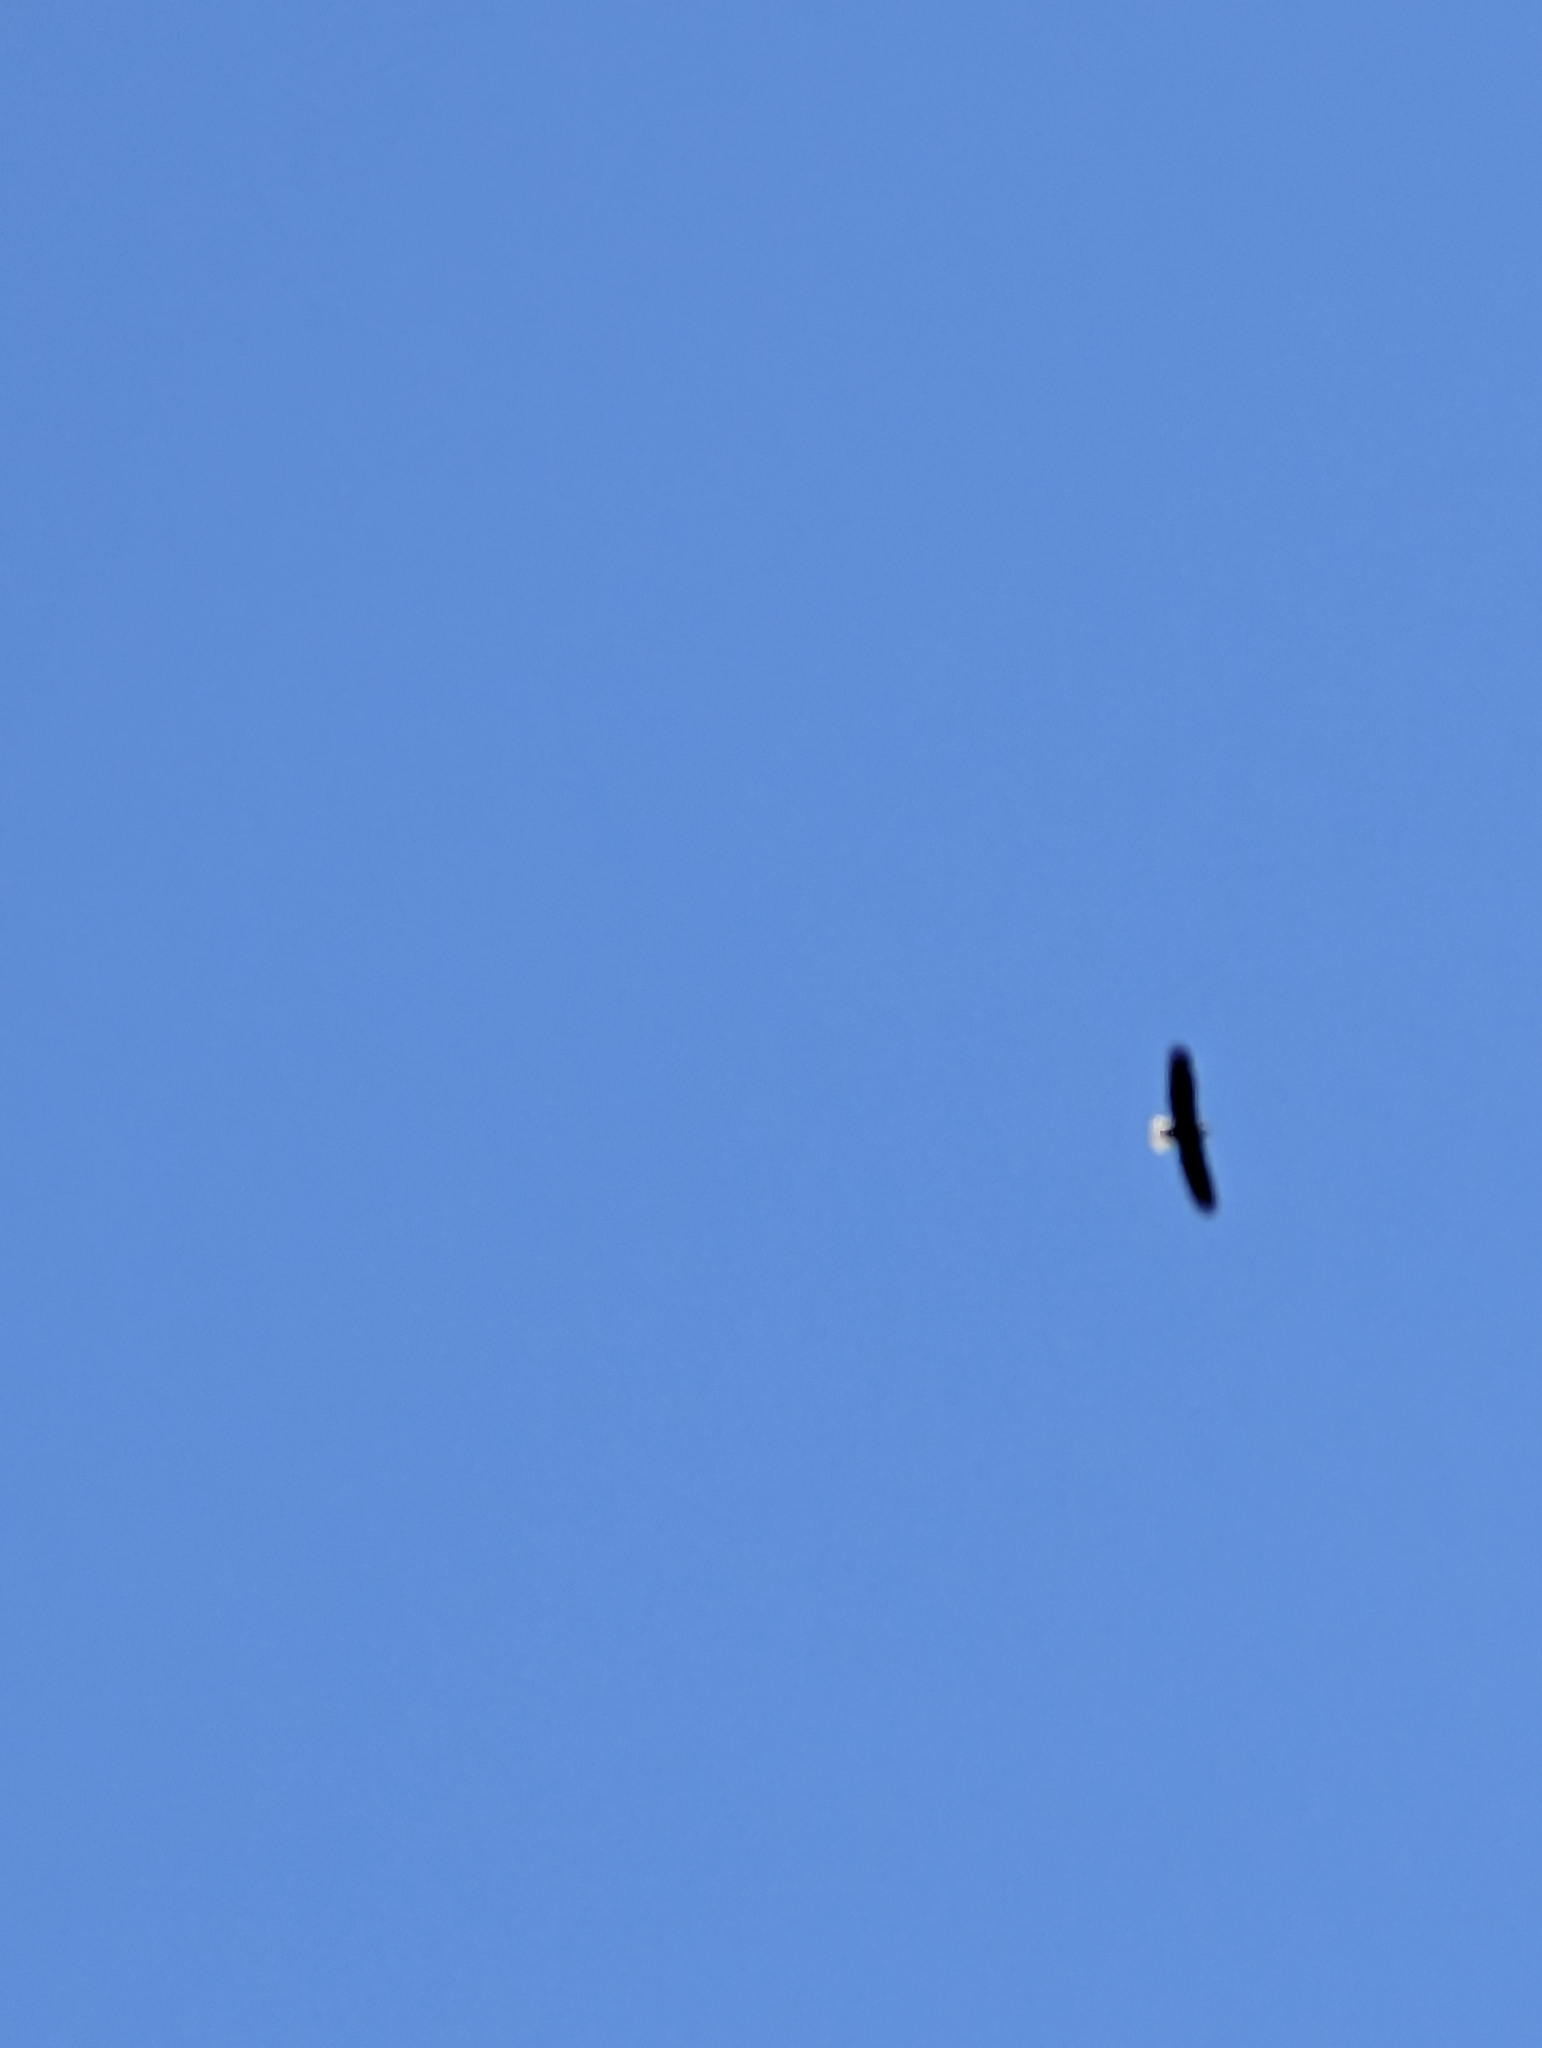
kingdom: Animalia
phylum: Chordata
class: Aves
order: Accipitriformes
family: Accipitridae
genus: Haliaeetus
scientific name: Haliaeetus leucocephalus
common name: Bald eagle
